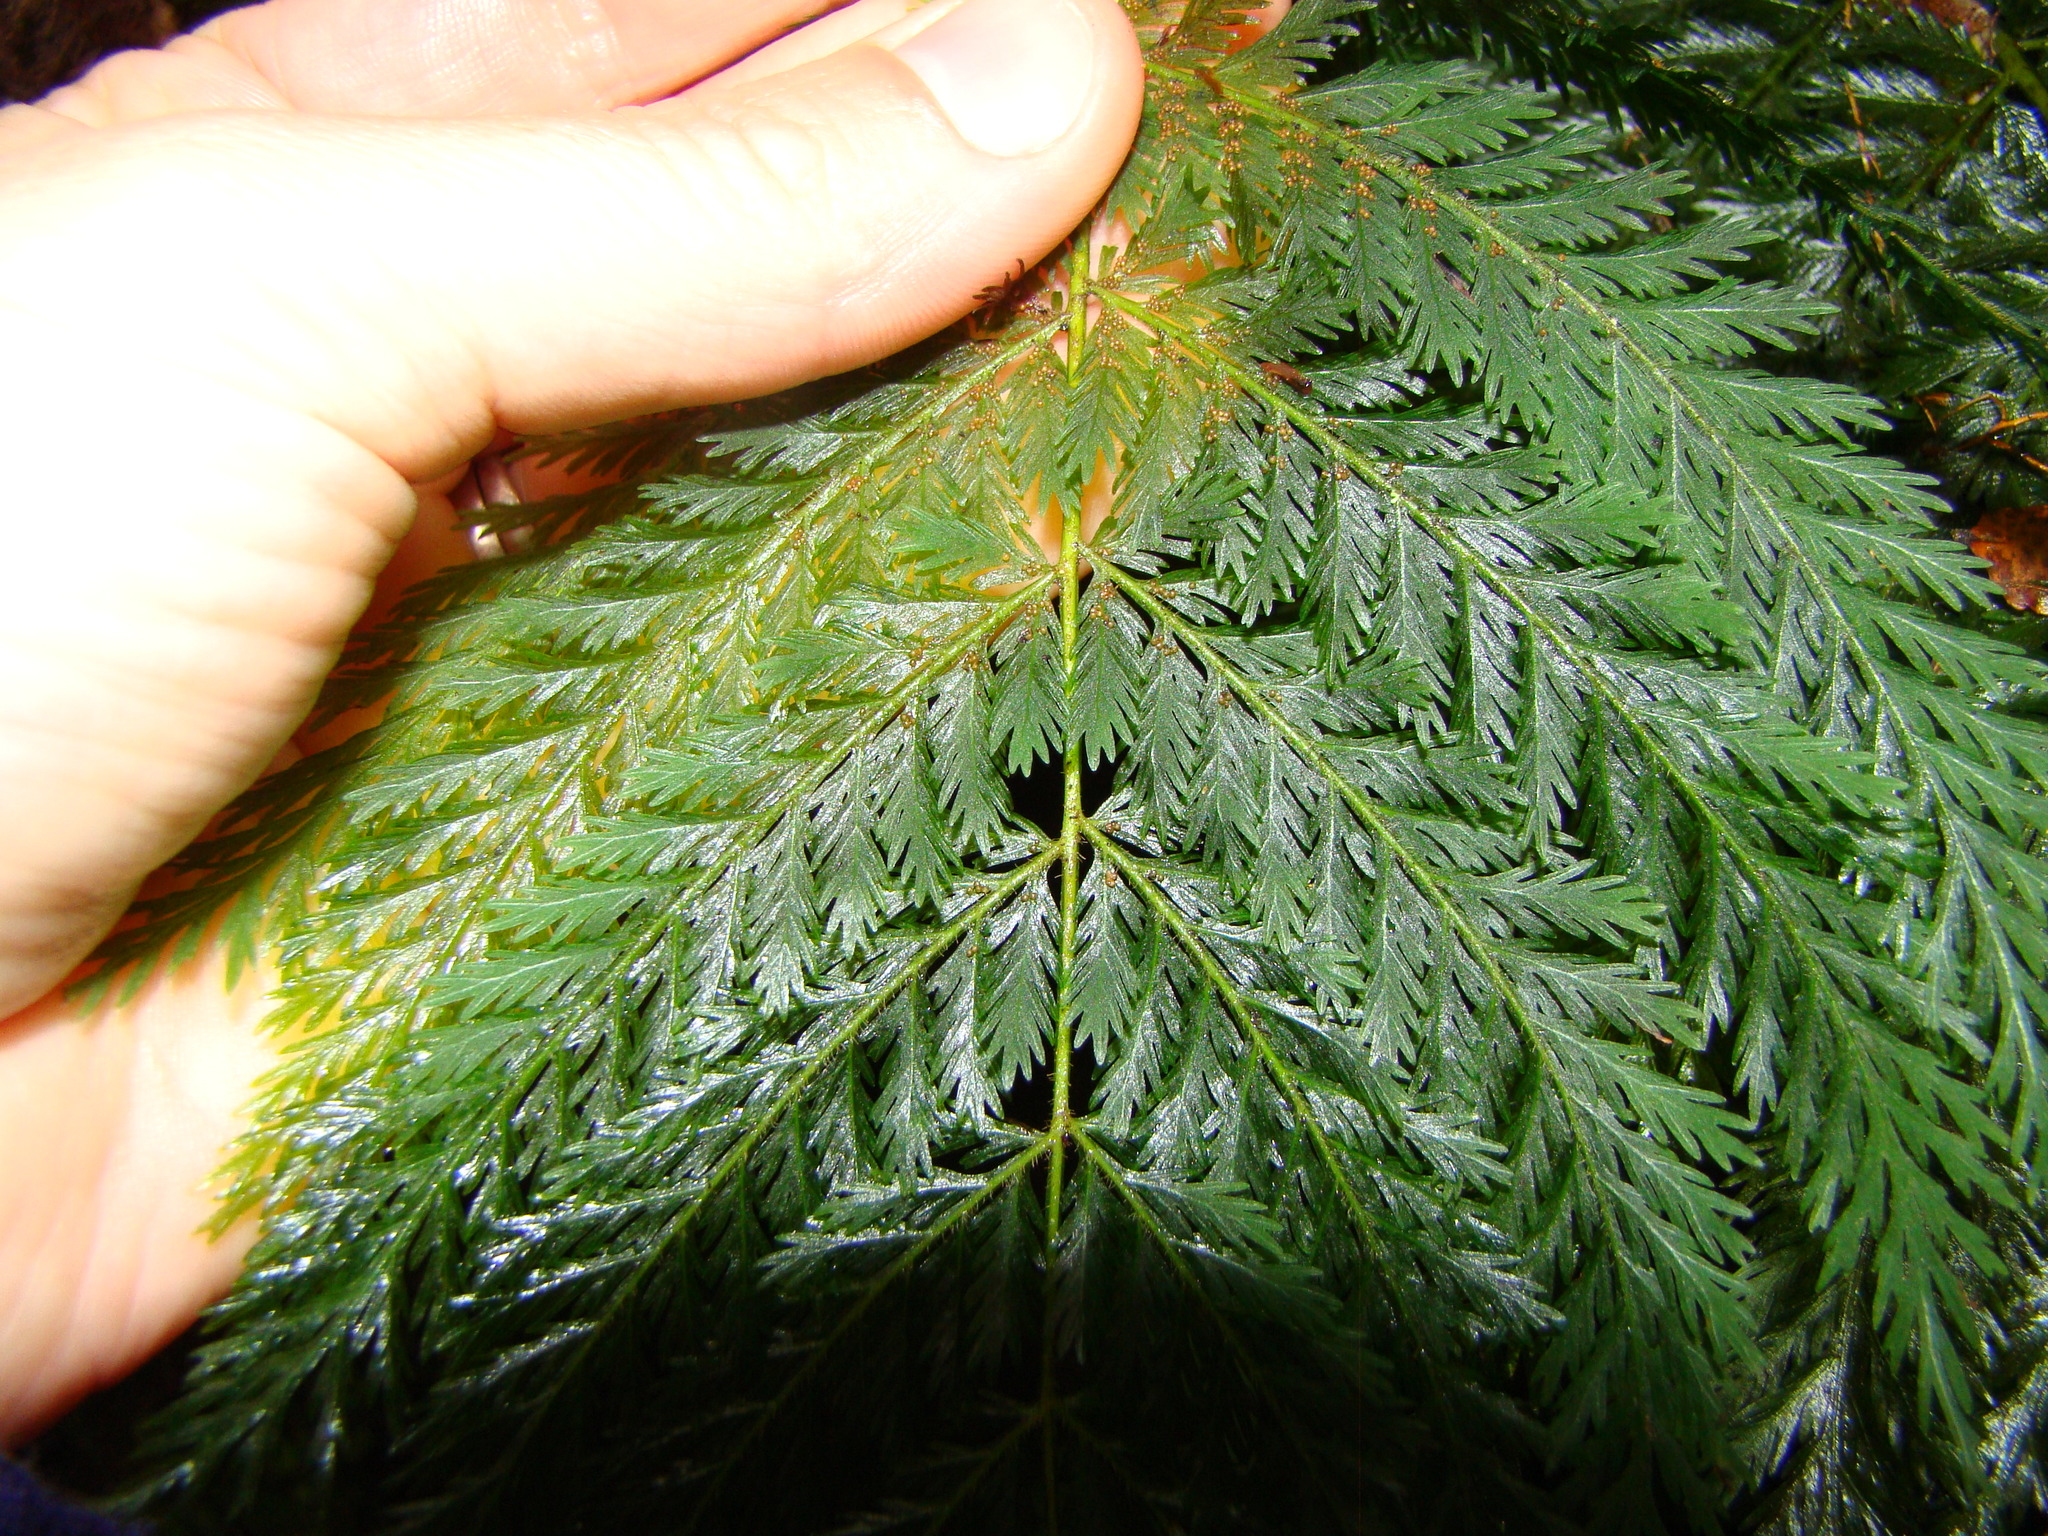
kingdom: Plantae
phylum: Tracheophyta
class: Polypodiopsida
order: Osmundales
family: Osmundaceae
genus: Leptopteris
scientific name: Leptopteris hymenophylloides
